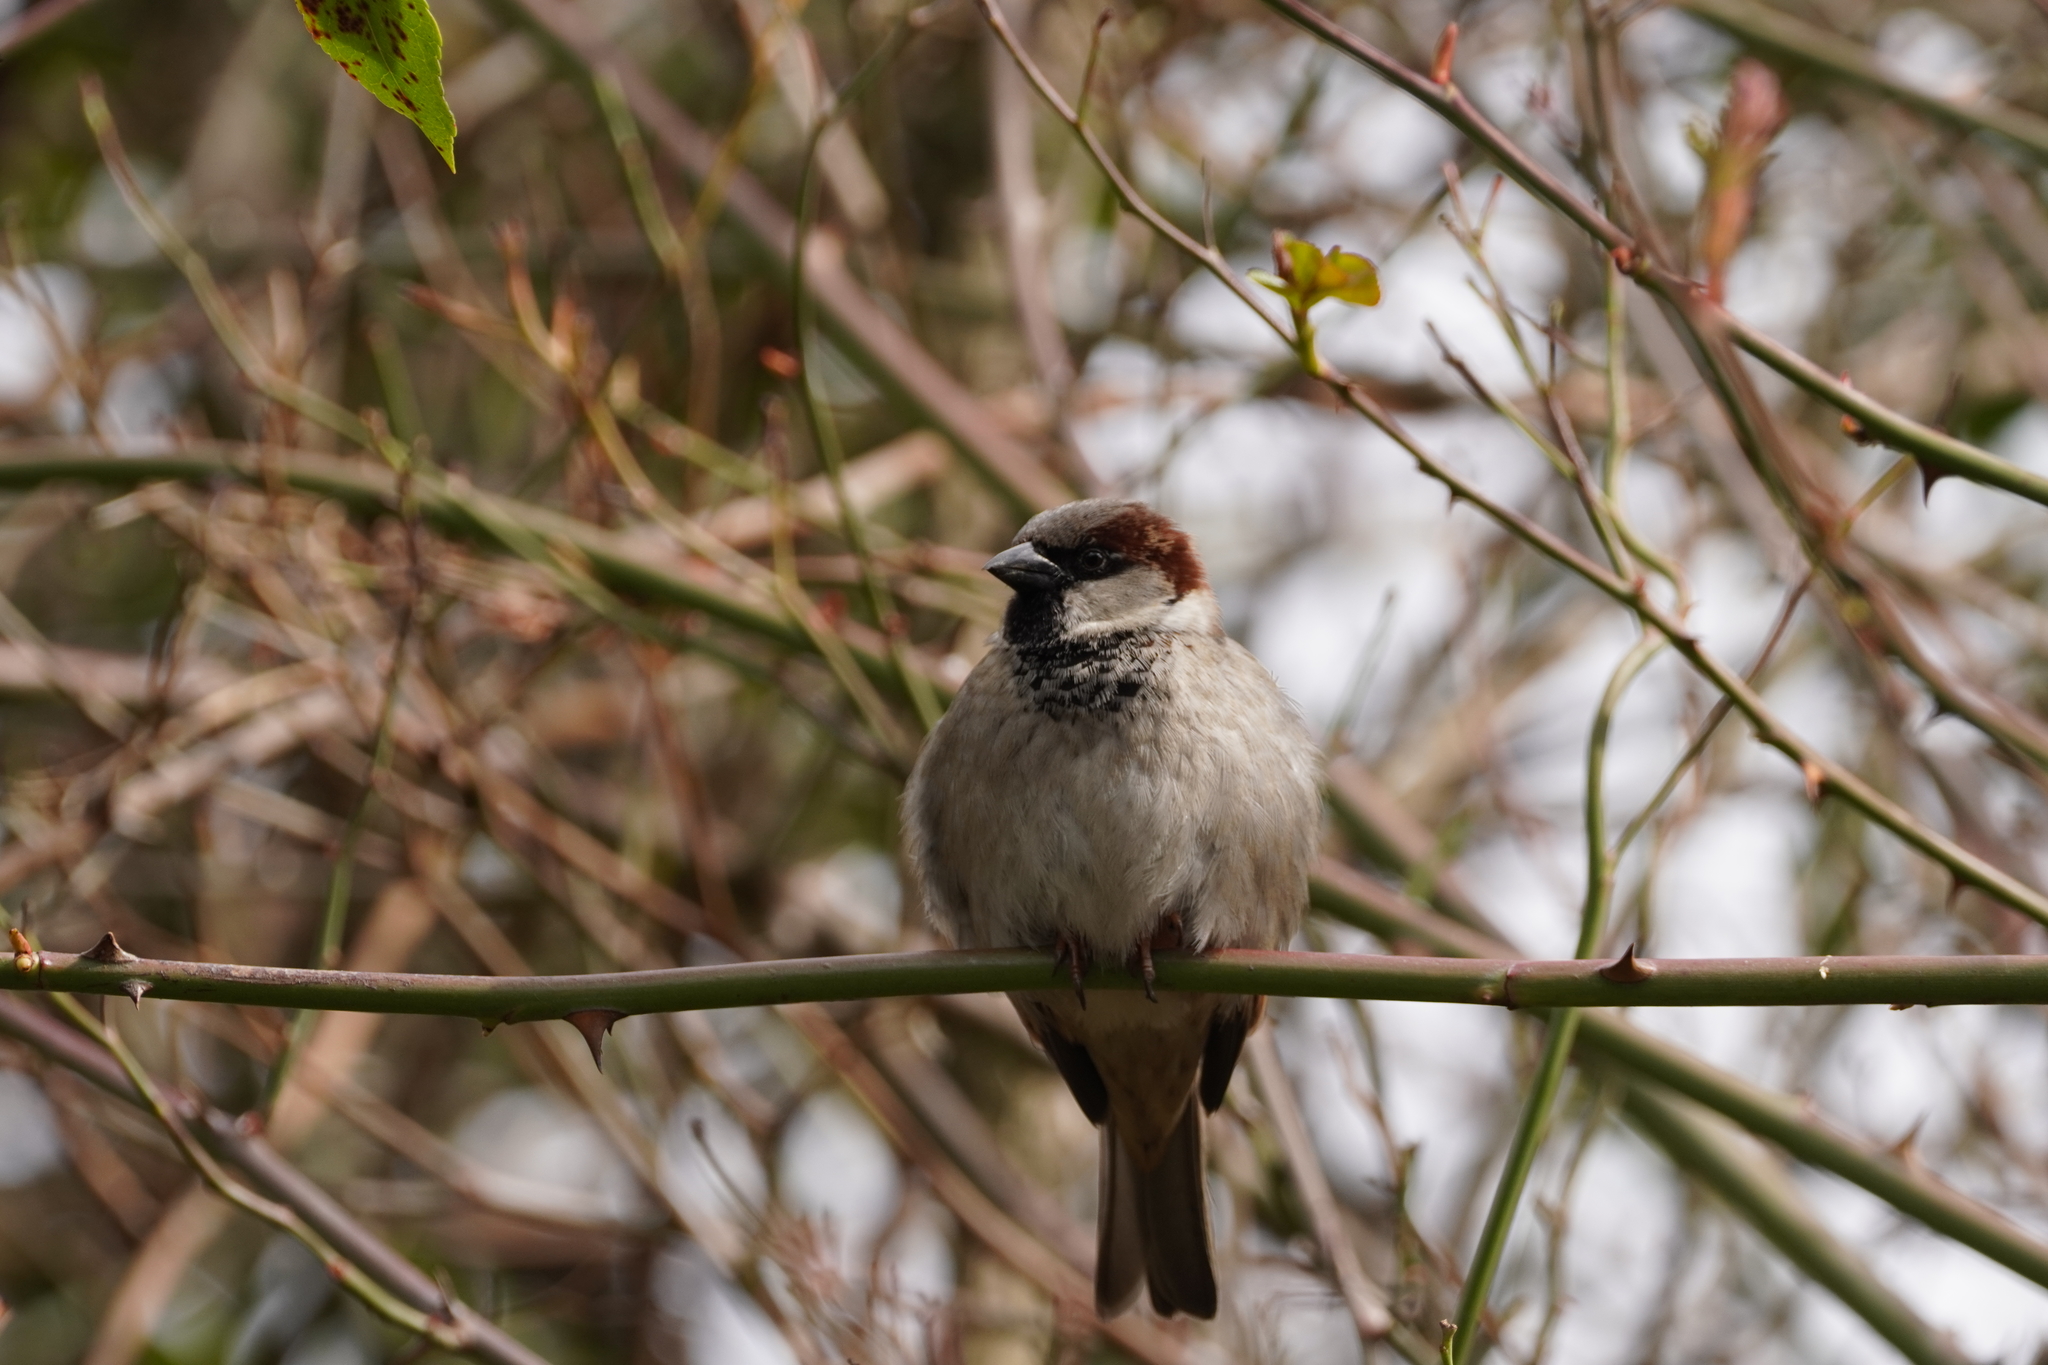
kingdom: Animalia
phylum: Chordata
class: Aves
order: Passeriformes
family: Passeridae
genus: Passer
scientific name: Passer domesticus
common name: House sparrow
